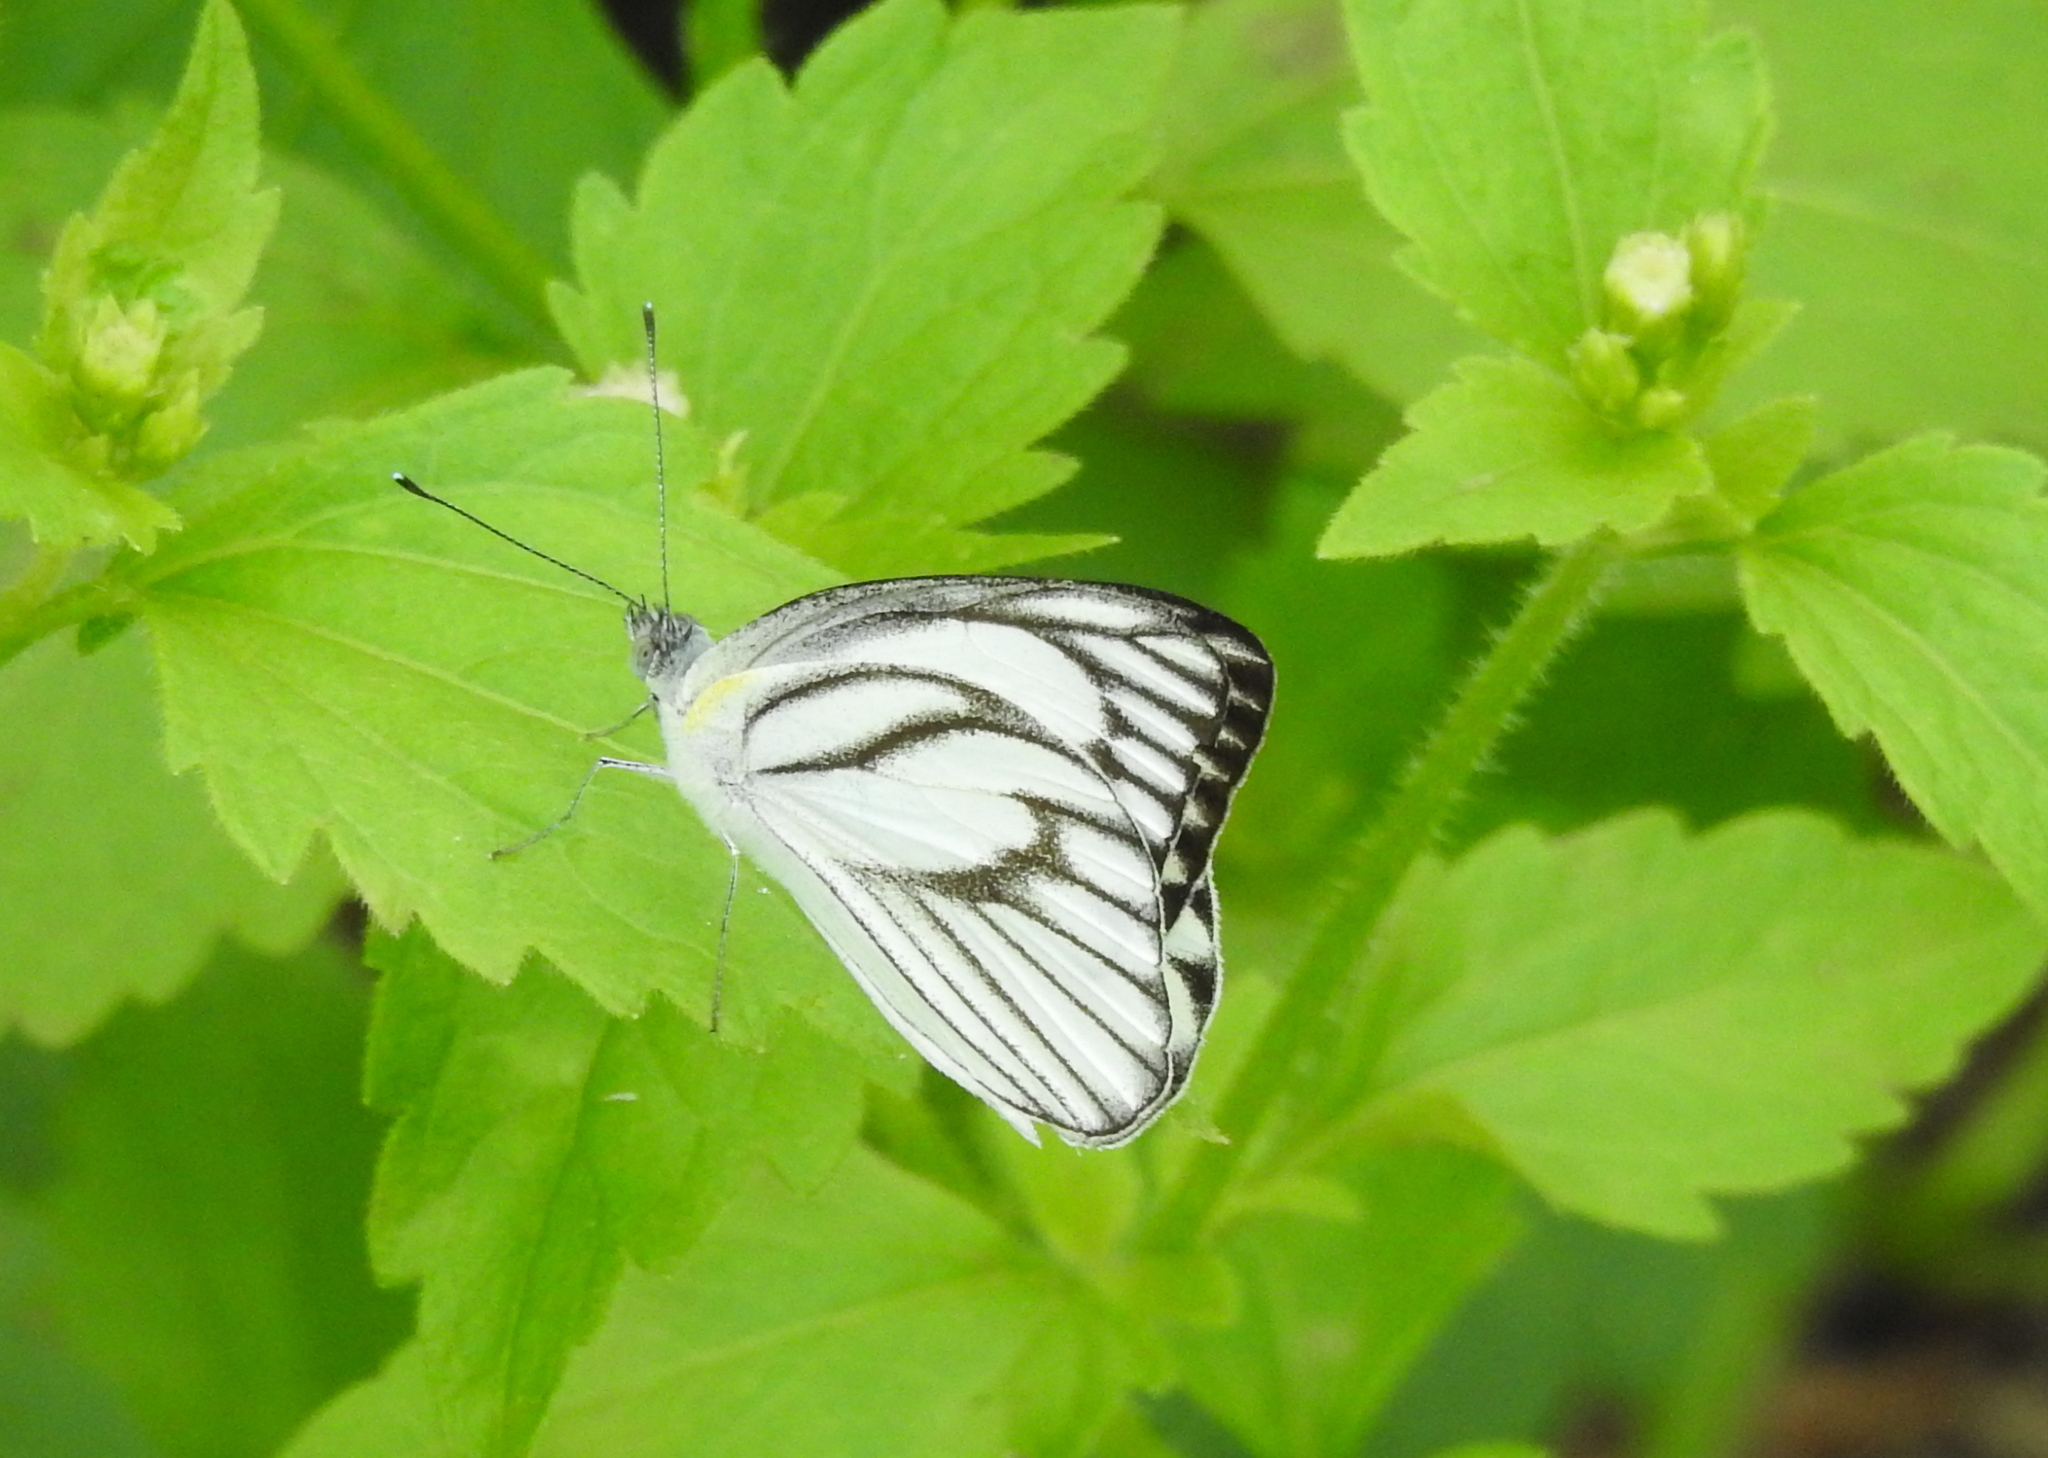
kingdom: Animalia
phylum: Arthropoda
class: Insecta
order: Lepidoptera
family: Pieridae
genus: Appias
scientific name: Appias libythea
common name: Striped albatross
